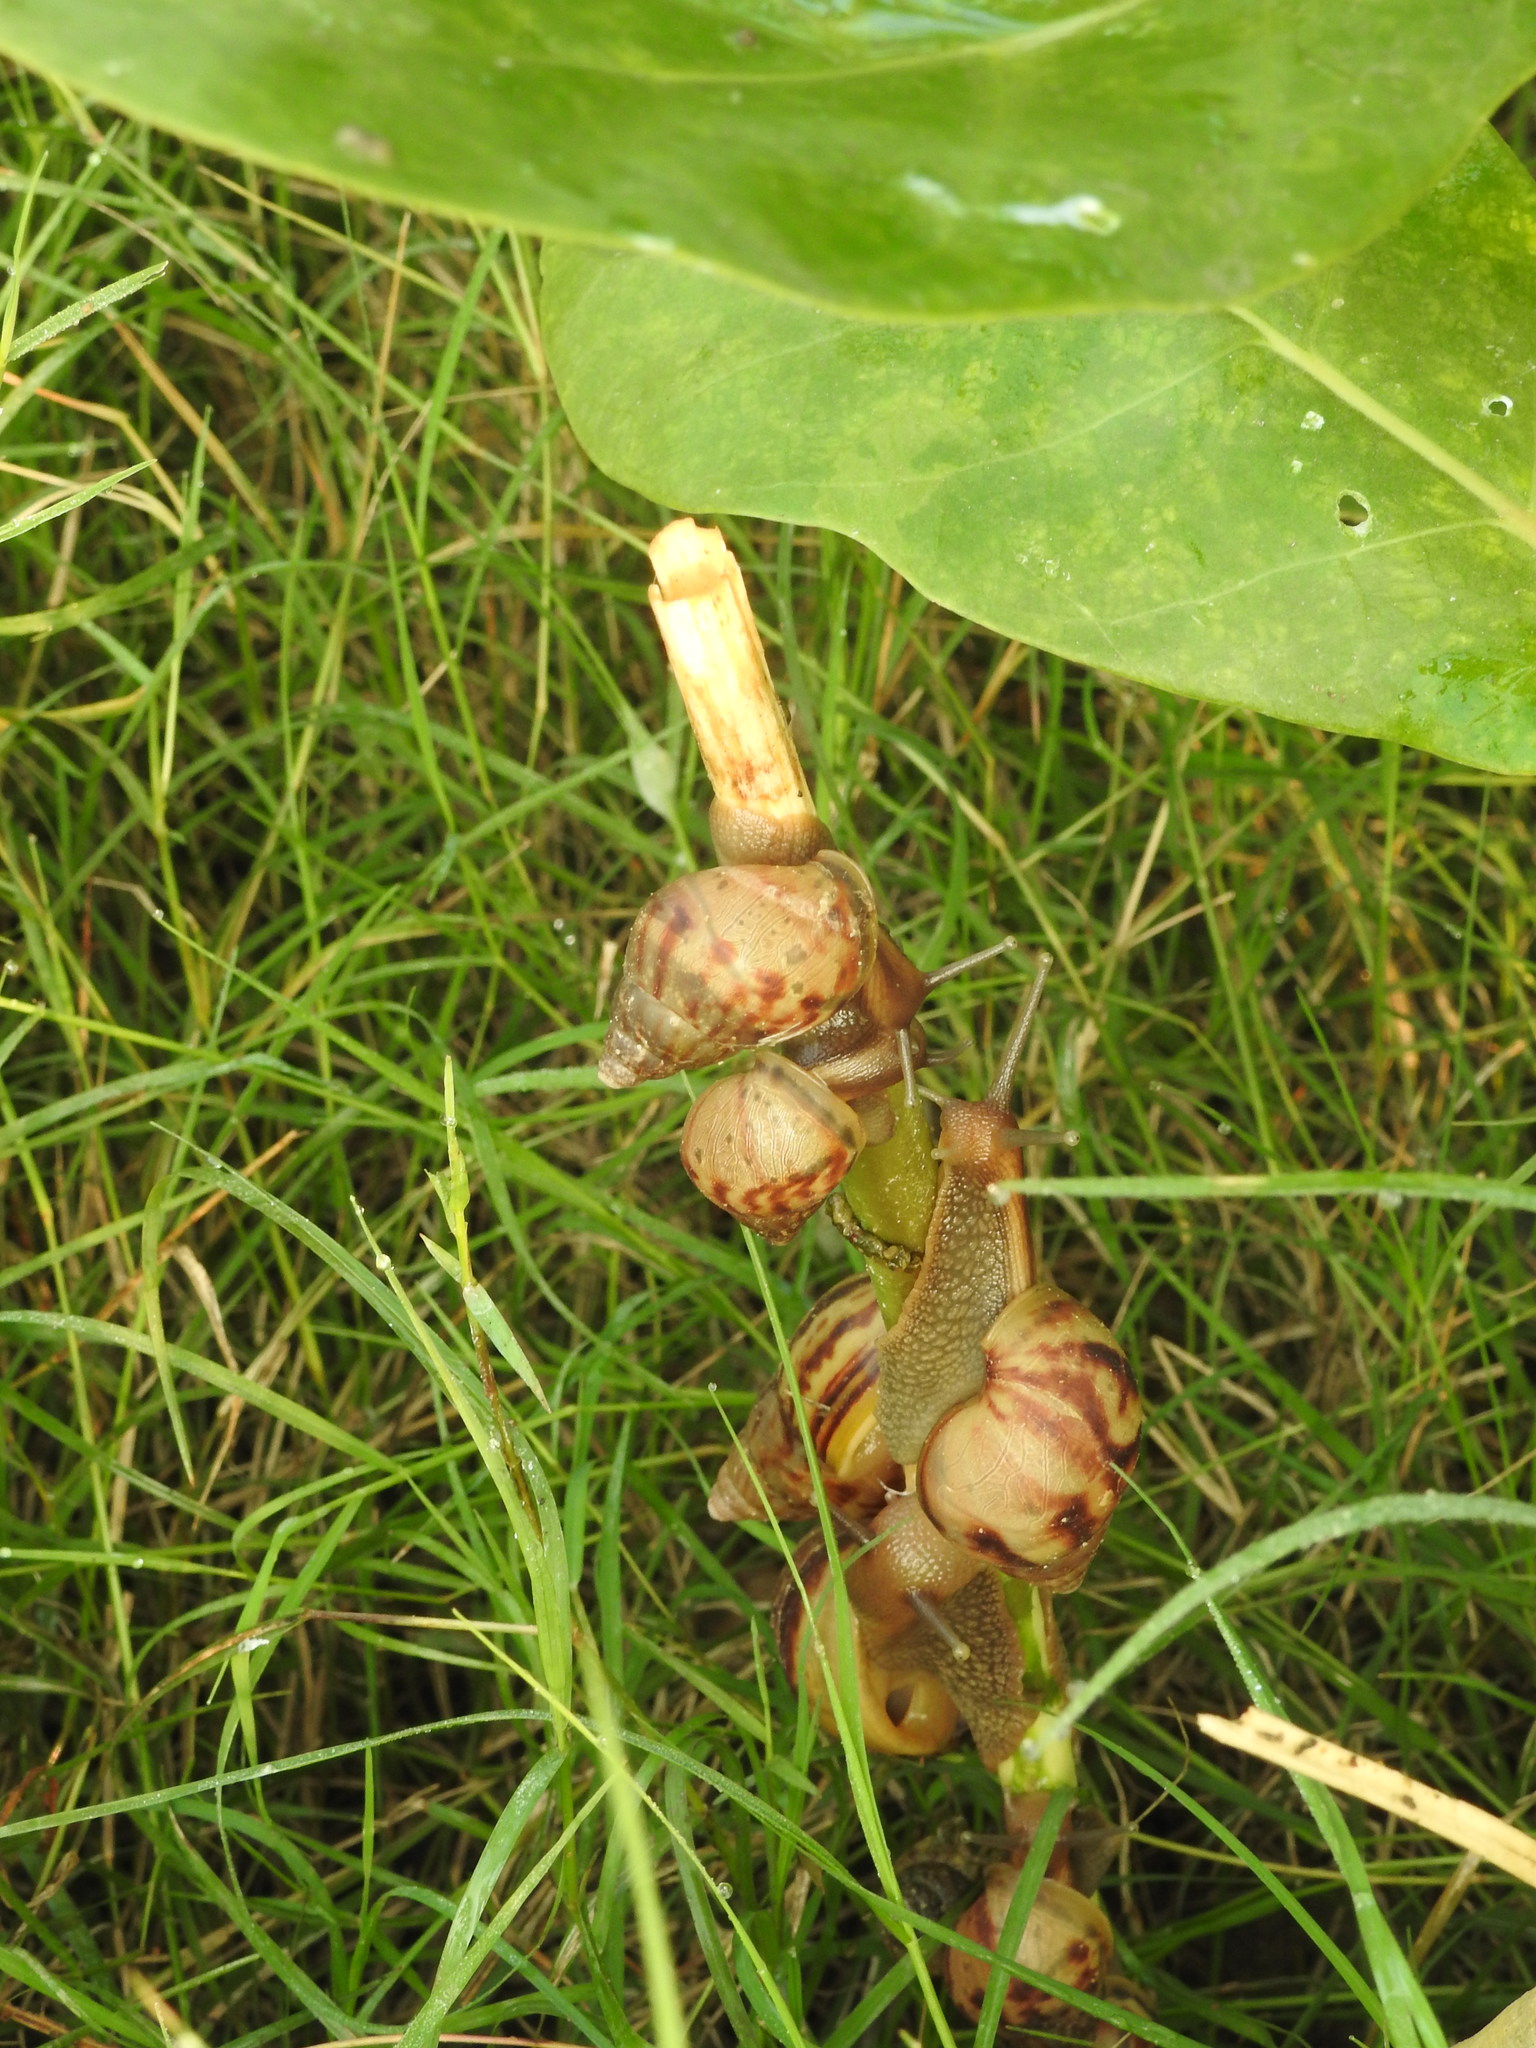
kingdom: Animalia
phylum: Mollusca
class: Gastropoda
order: Stylommatophora
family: Achatinidae
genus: Lissachatina
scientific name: Lissachatina fulica
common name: Giant african snail
